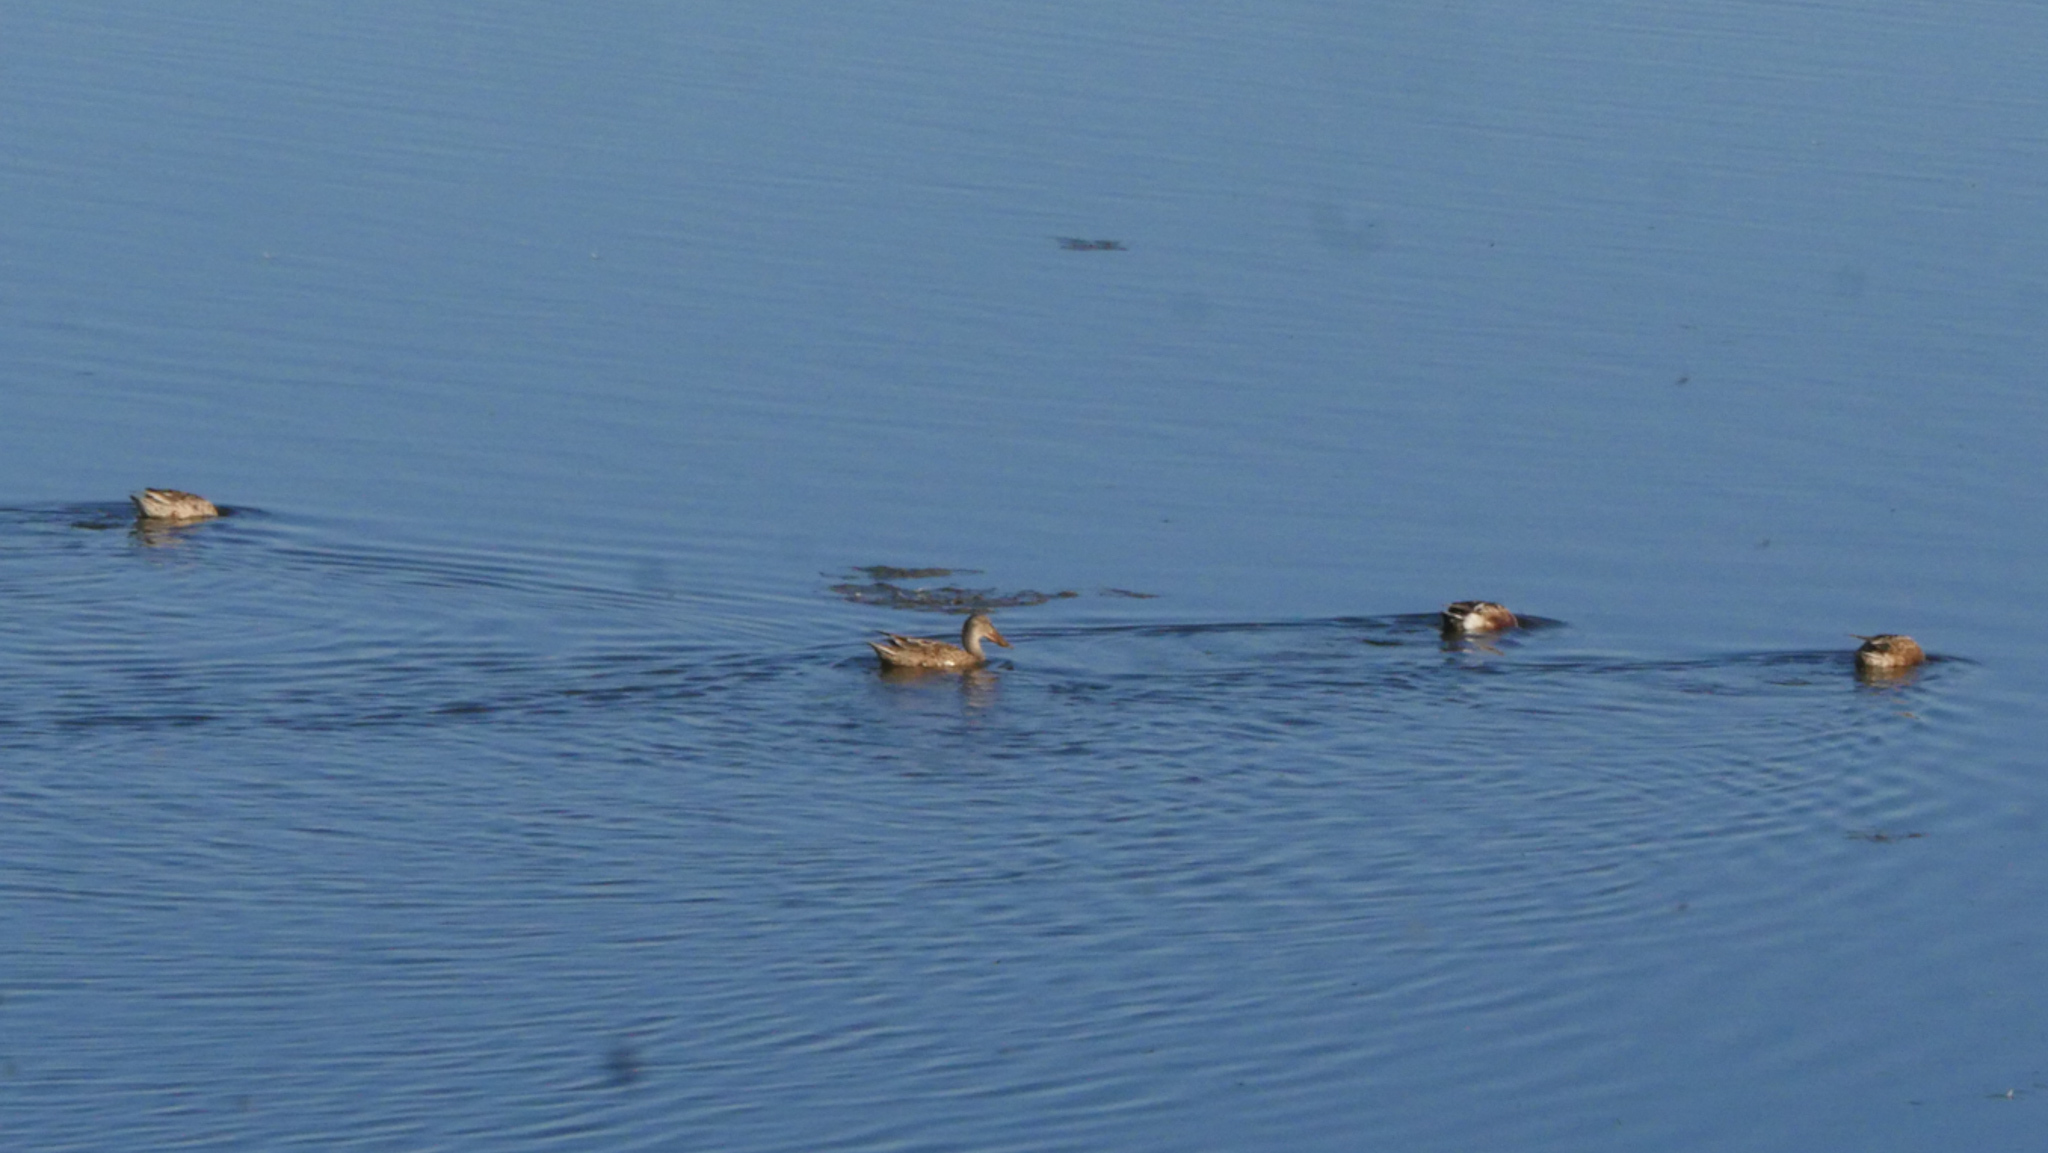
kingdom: Animalia
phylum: Chordata
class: Aves
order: Anseriformes
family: Anatidae
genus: Spatula
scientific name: Spatula clypeata
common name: Northern shoveler
